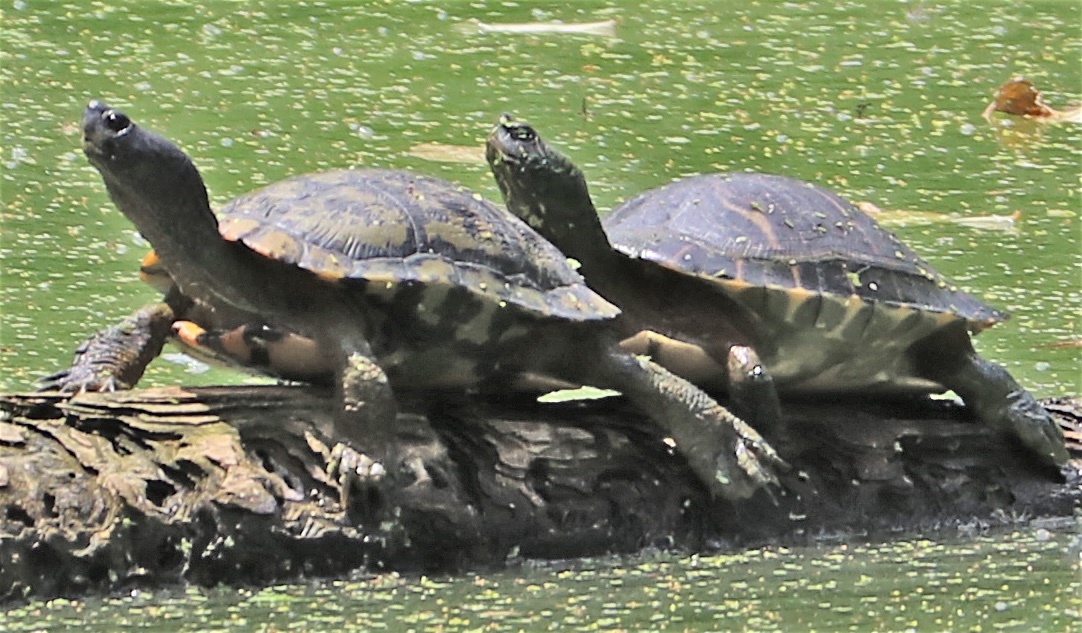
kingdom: Animalia
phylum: Chordata
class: Testudines
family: Emydidae
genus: Pseudemys
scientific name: Pseudemys concinna
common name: Eastern river cooter
